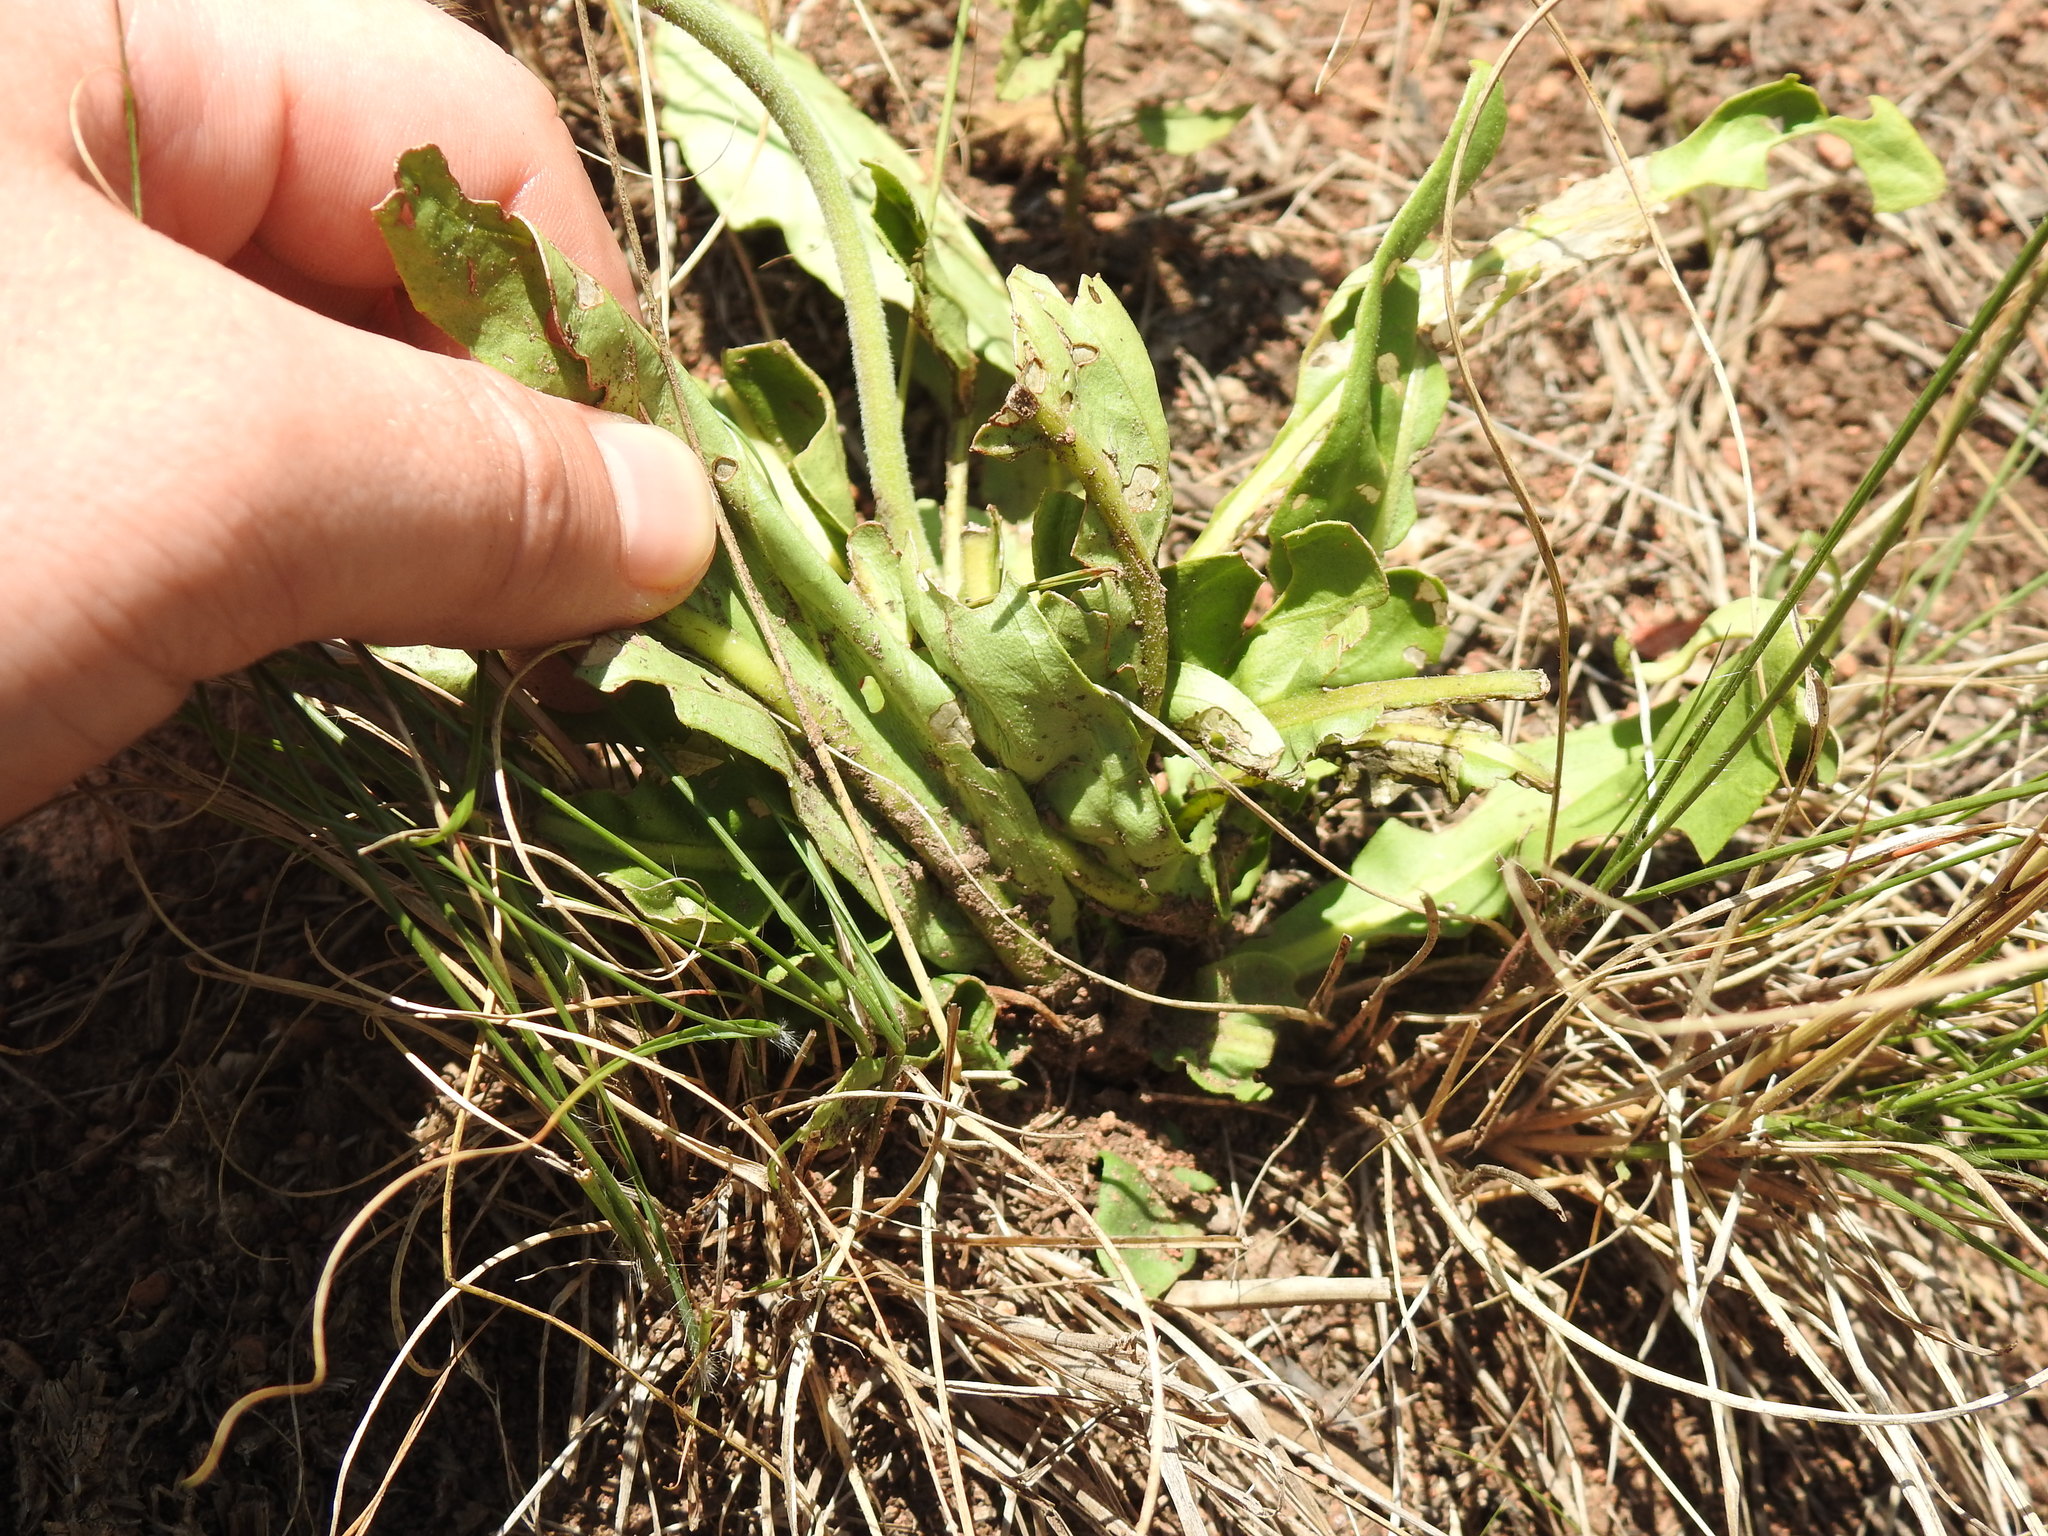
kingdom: Plantae
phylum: Tracheophyta
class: Magnoliopsida
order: Lamiales
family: Acanthaceae
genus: Crossandra
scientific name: Crossandra greenstockii
